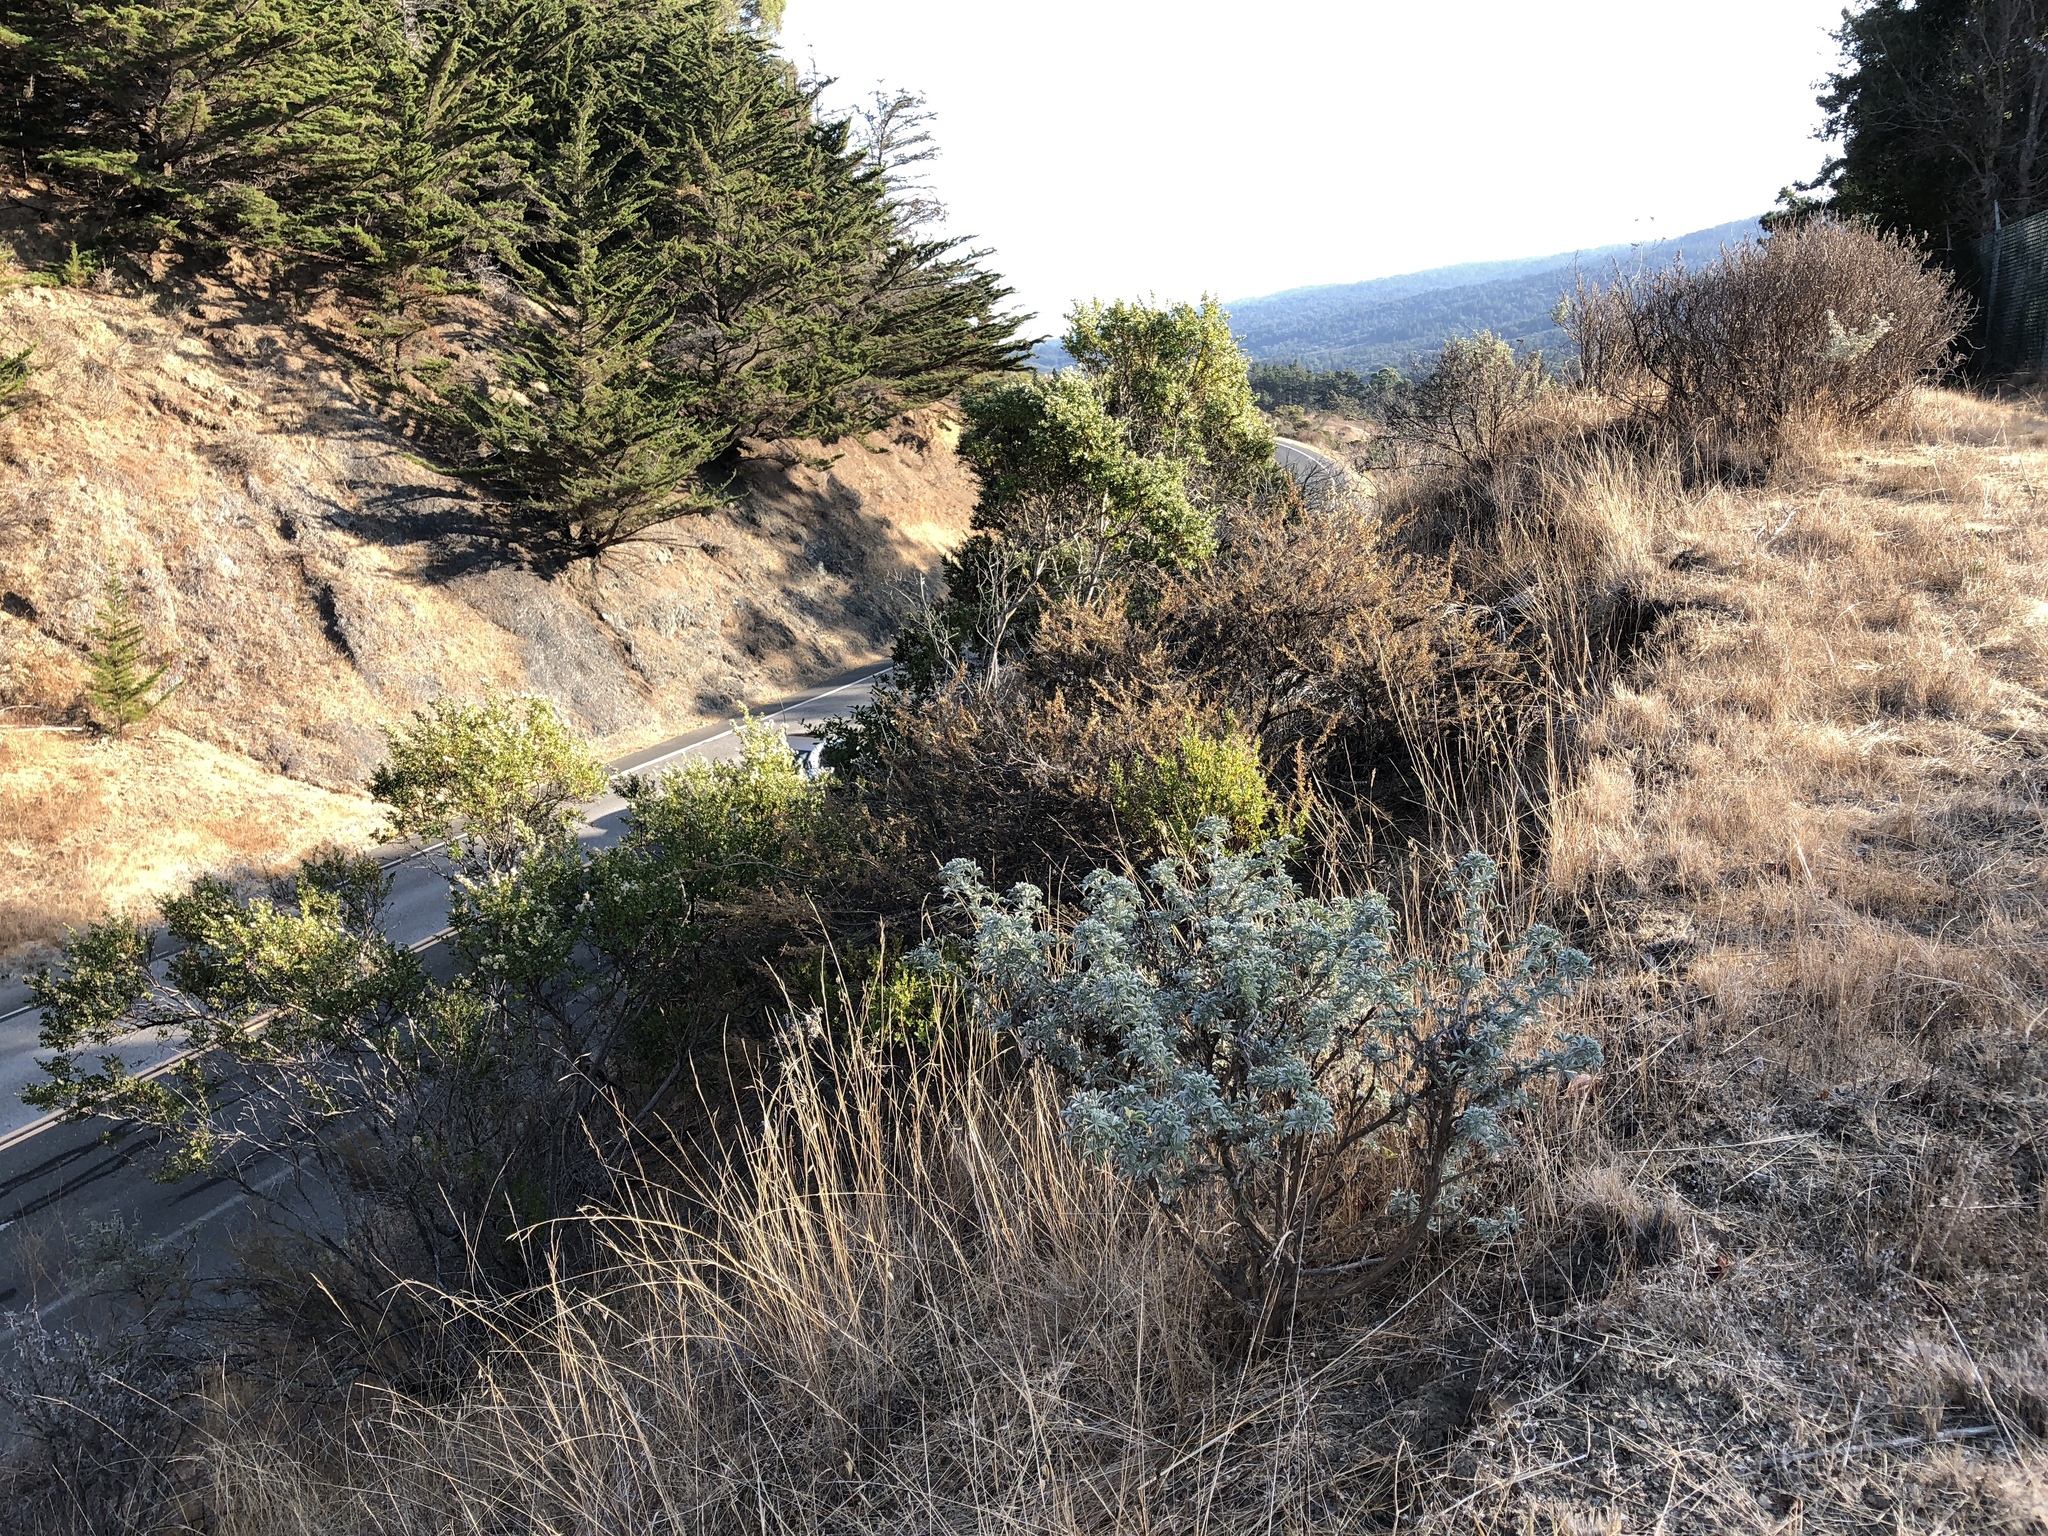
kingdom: Plantae
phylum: Tracheophyta
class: Magnoliopsida
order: Fabales
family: Fabaceae
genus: Lupinus
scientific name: Lupinus albifrons
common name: Foothill lupine
